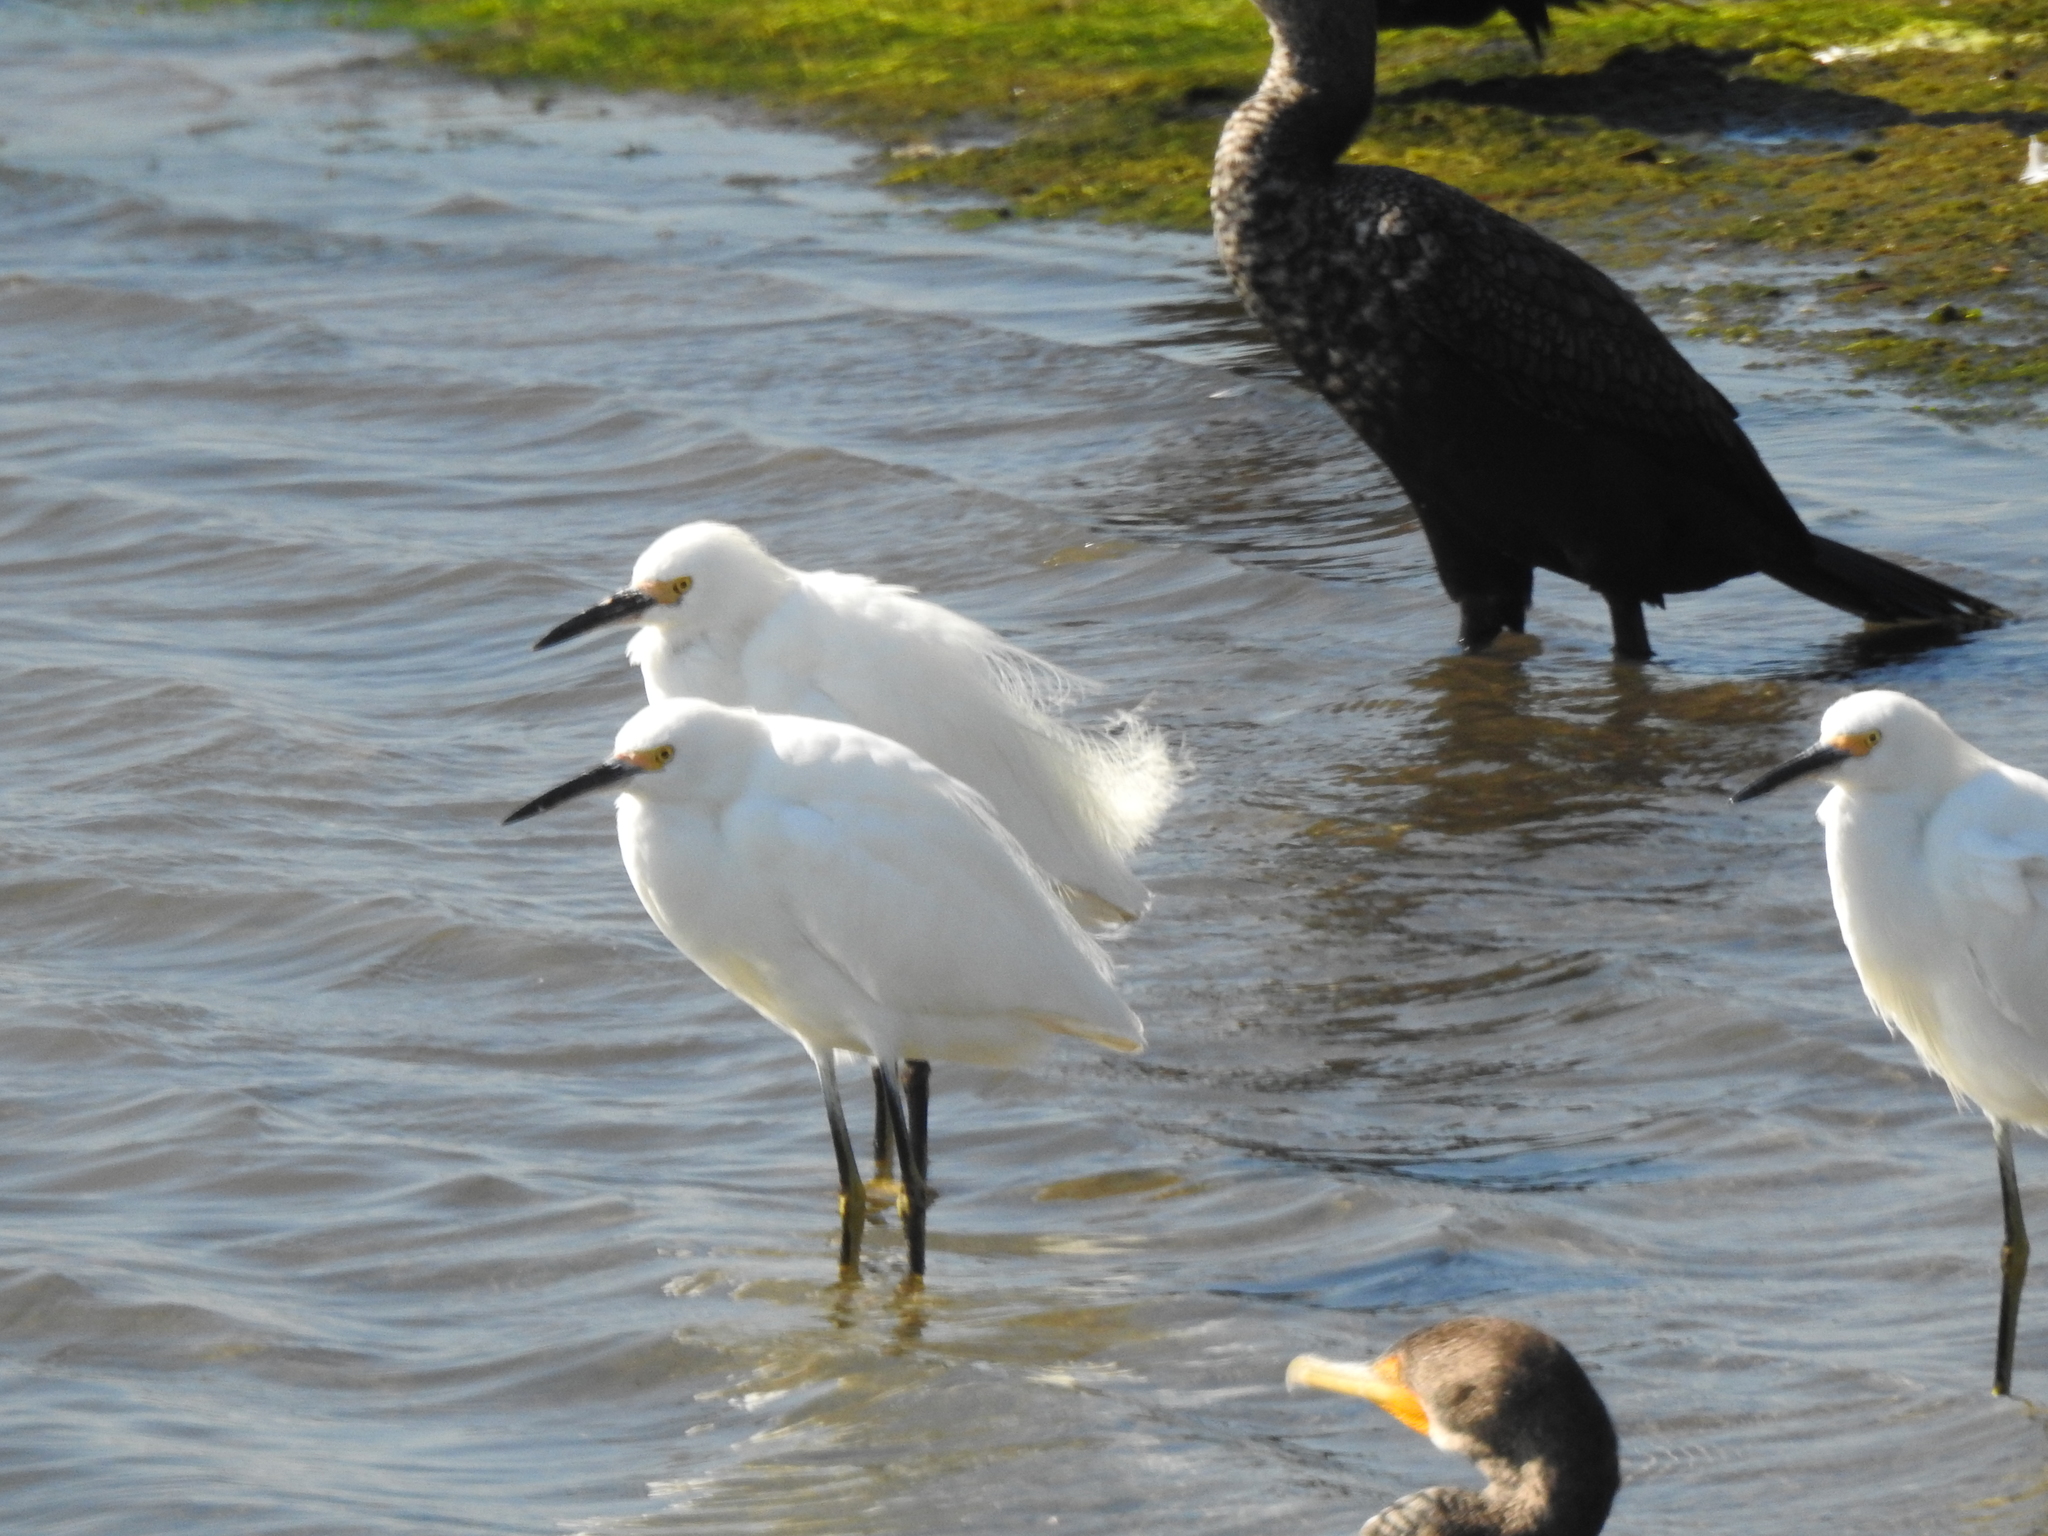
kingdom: Animalia
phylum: Chordata
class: Aves
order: Pelecaniformes
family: Ardeidae
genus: Egretta
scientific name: Egretta thula
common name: Snowy egret
